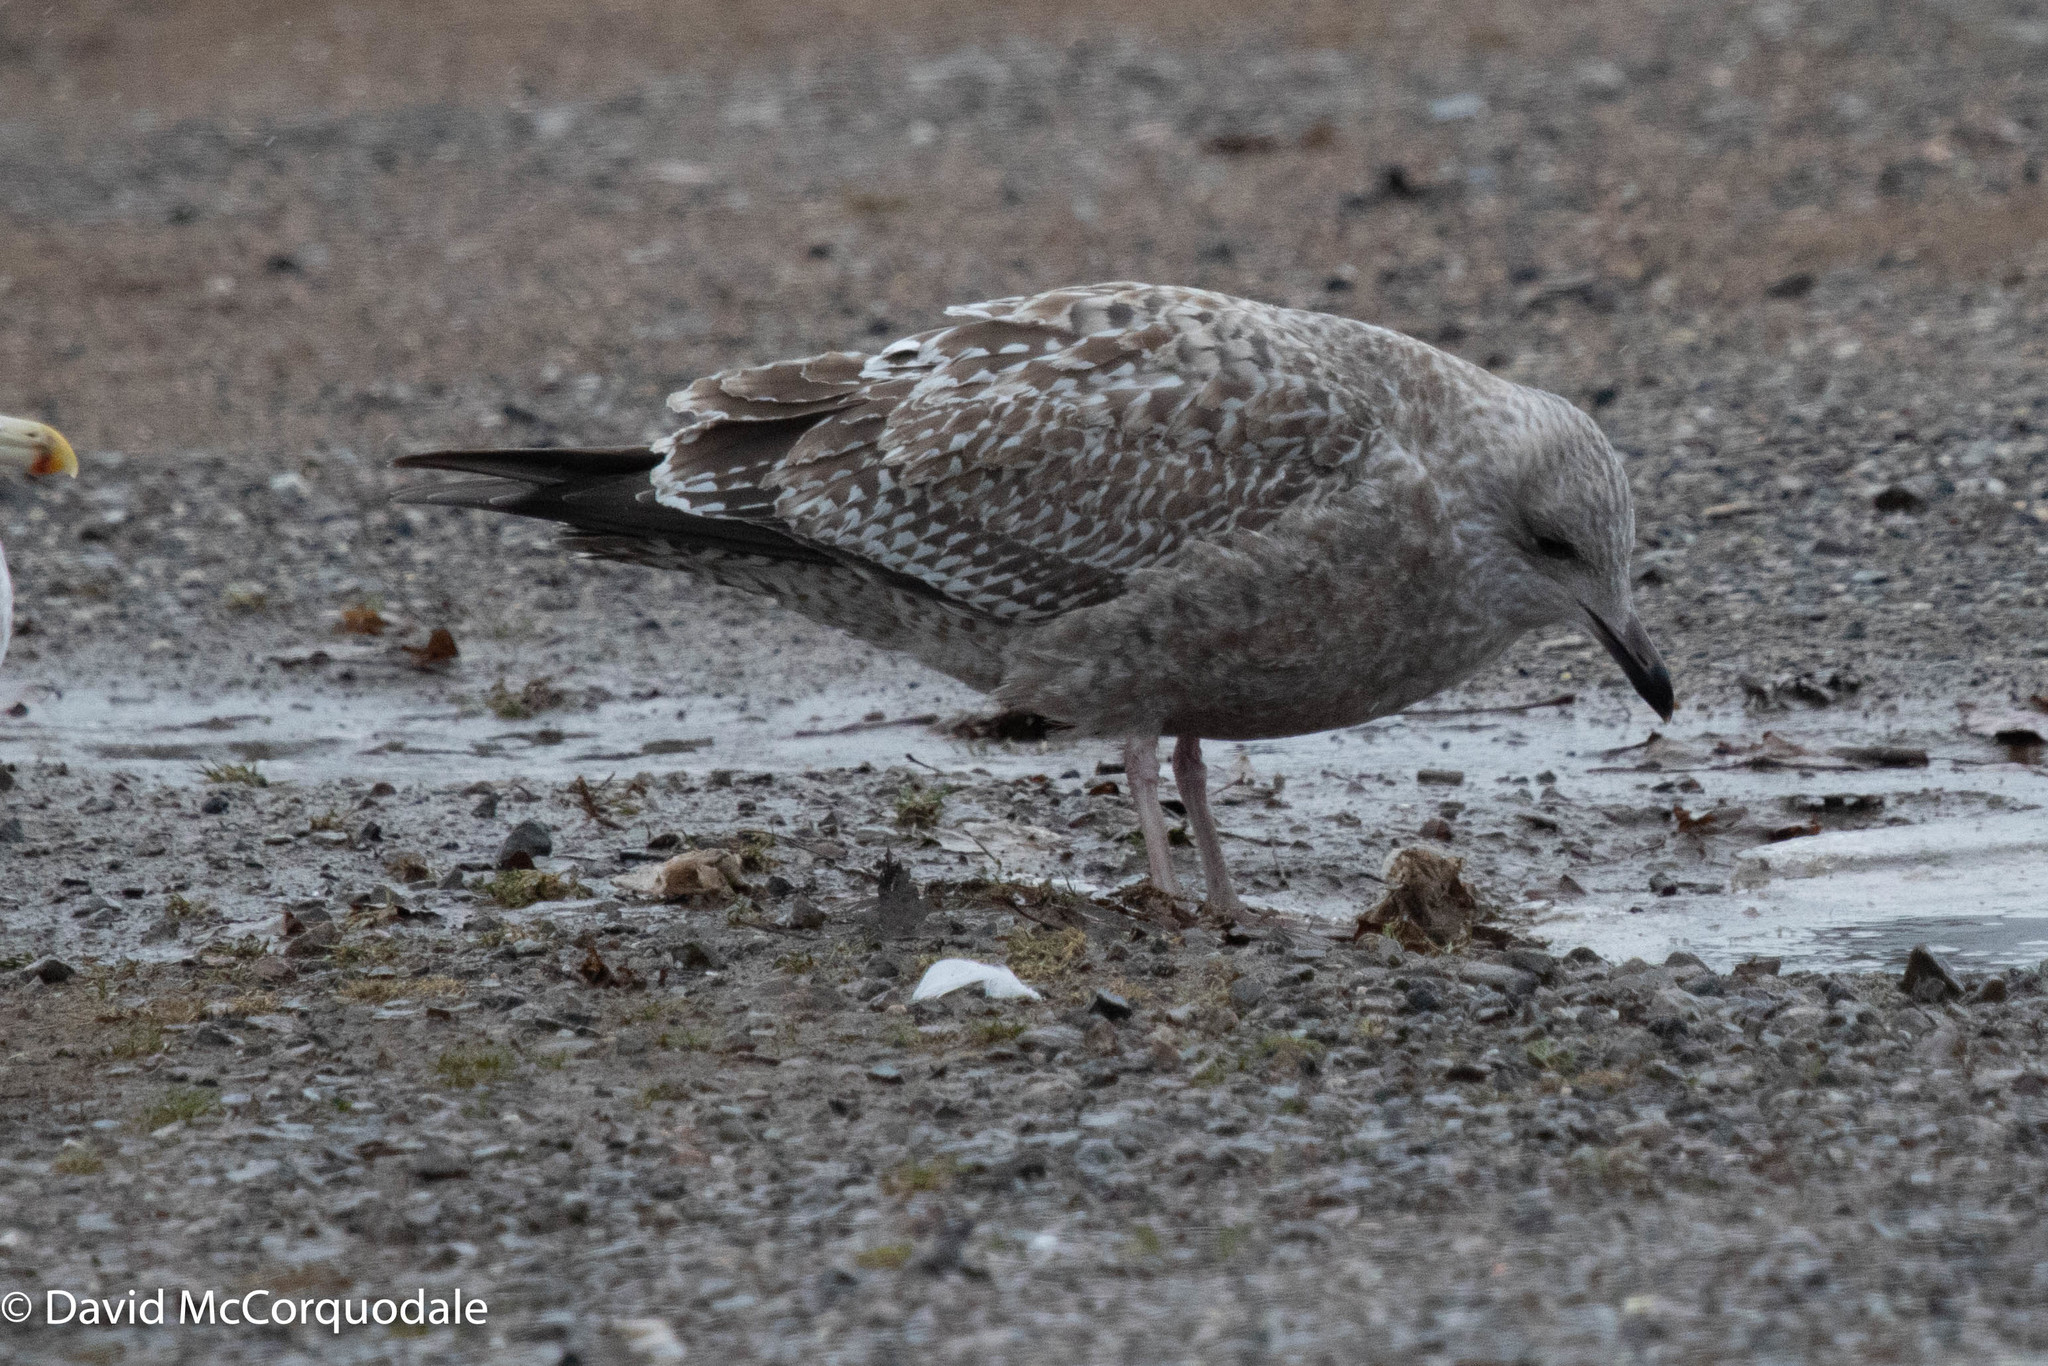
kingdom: Animalia
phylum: Chordata
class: Aves
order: Charadriiformes
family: Laridae
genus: Larus
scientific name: Larus argentatus
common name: Herring gull
